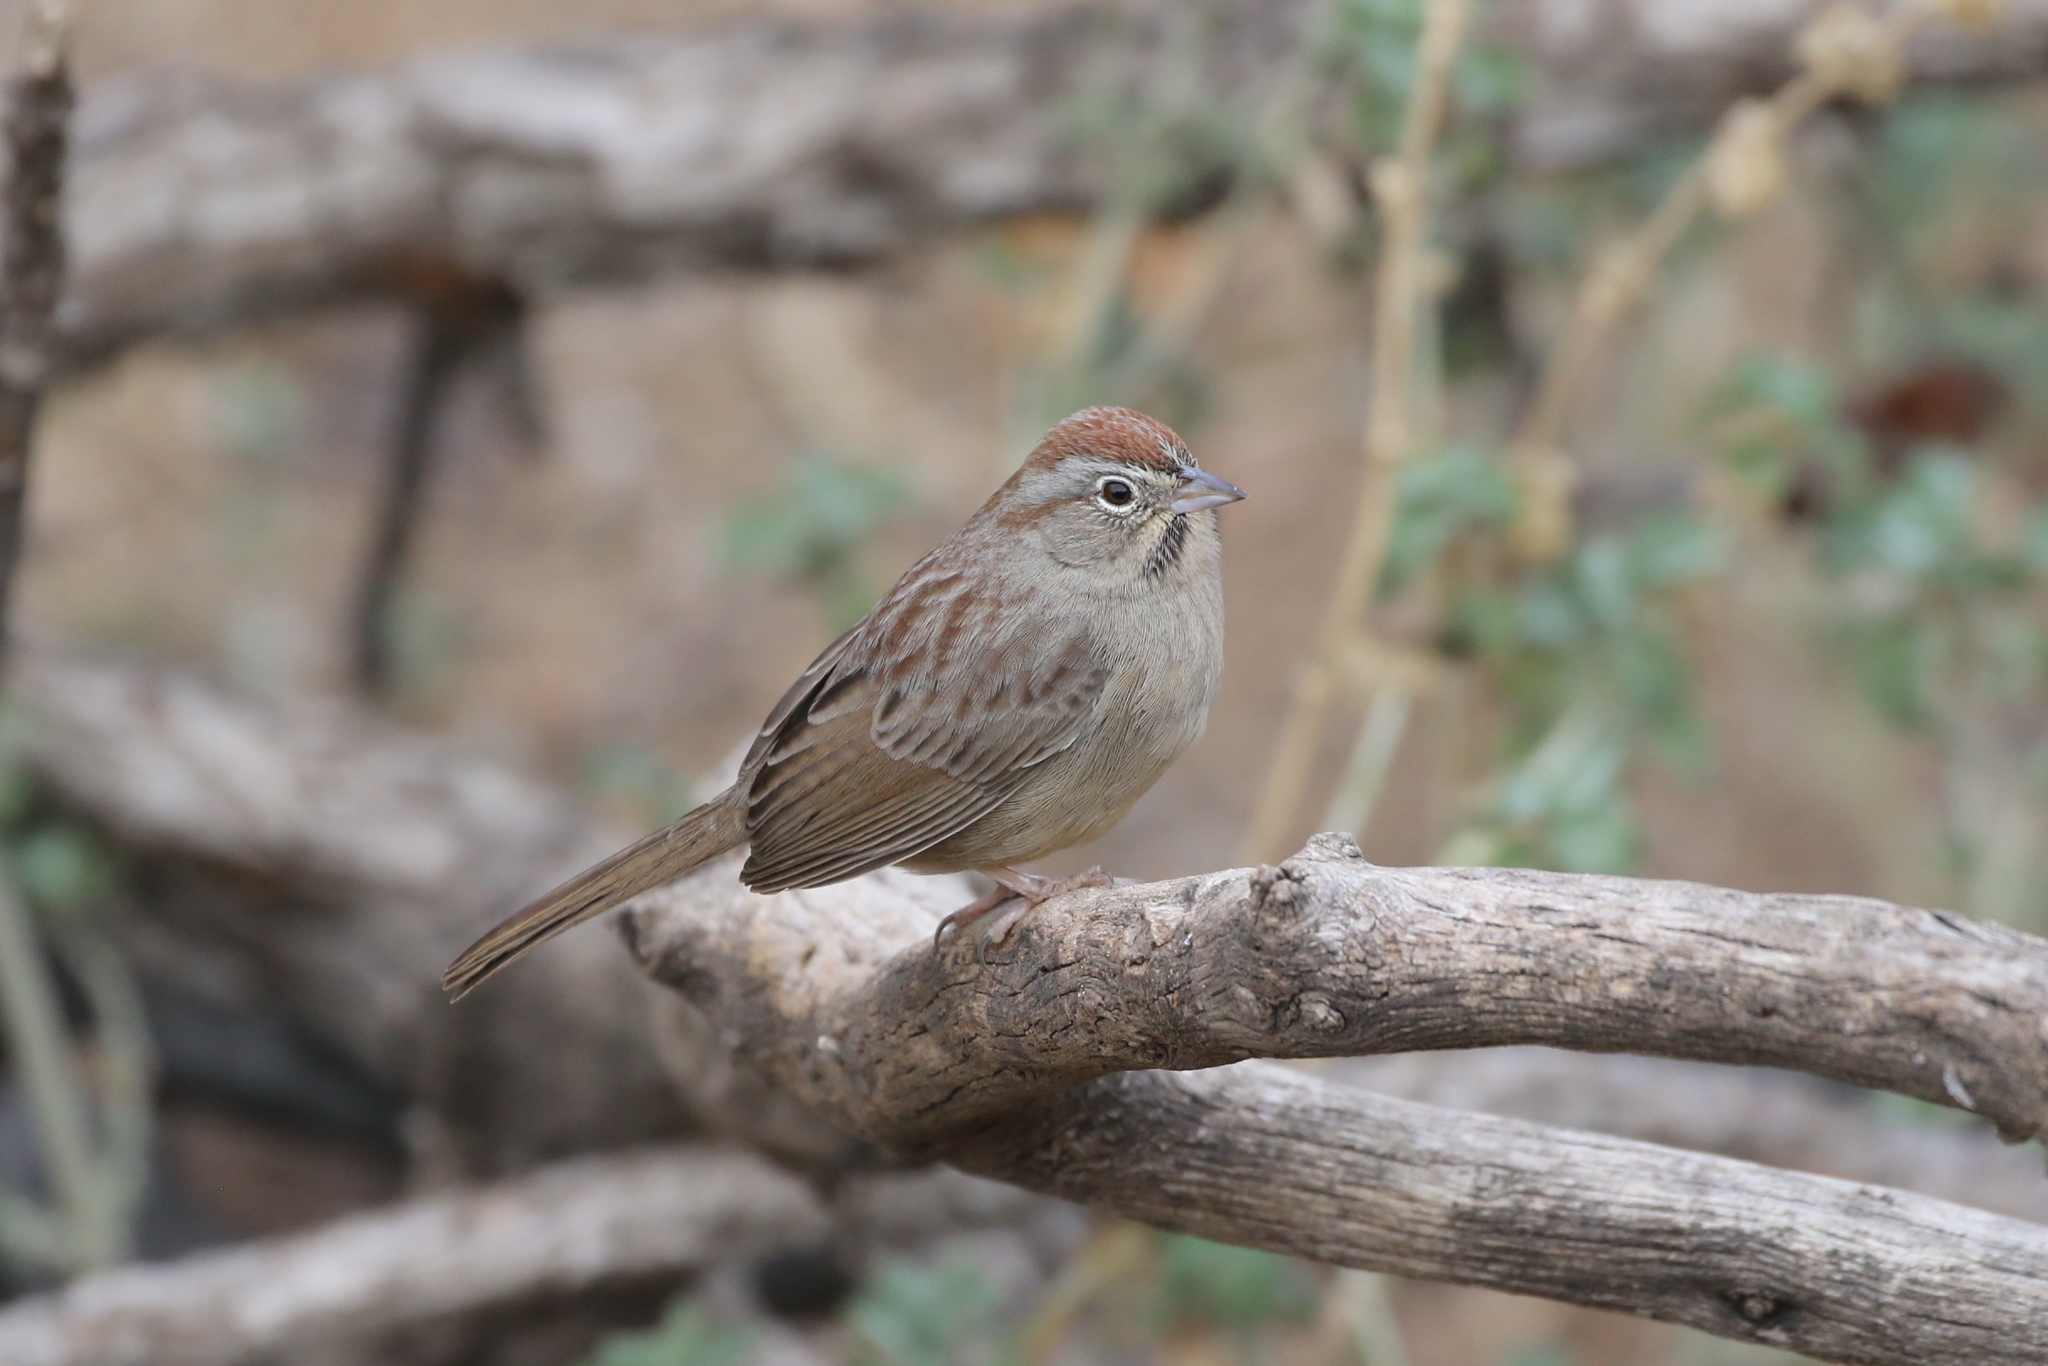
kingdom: Animalia
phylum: Chordata
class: Aves
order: Passeriformes
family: Passerellidae
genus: Aimophila
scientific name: Aimophila ruficeps
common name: Rufous-crowned sparrow
